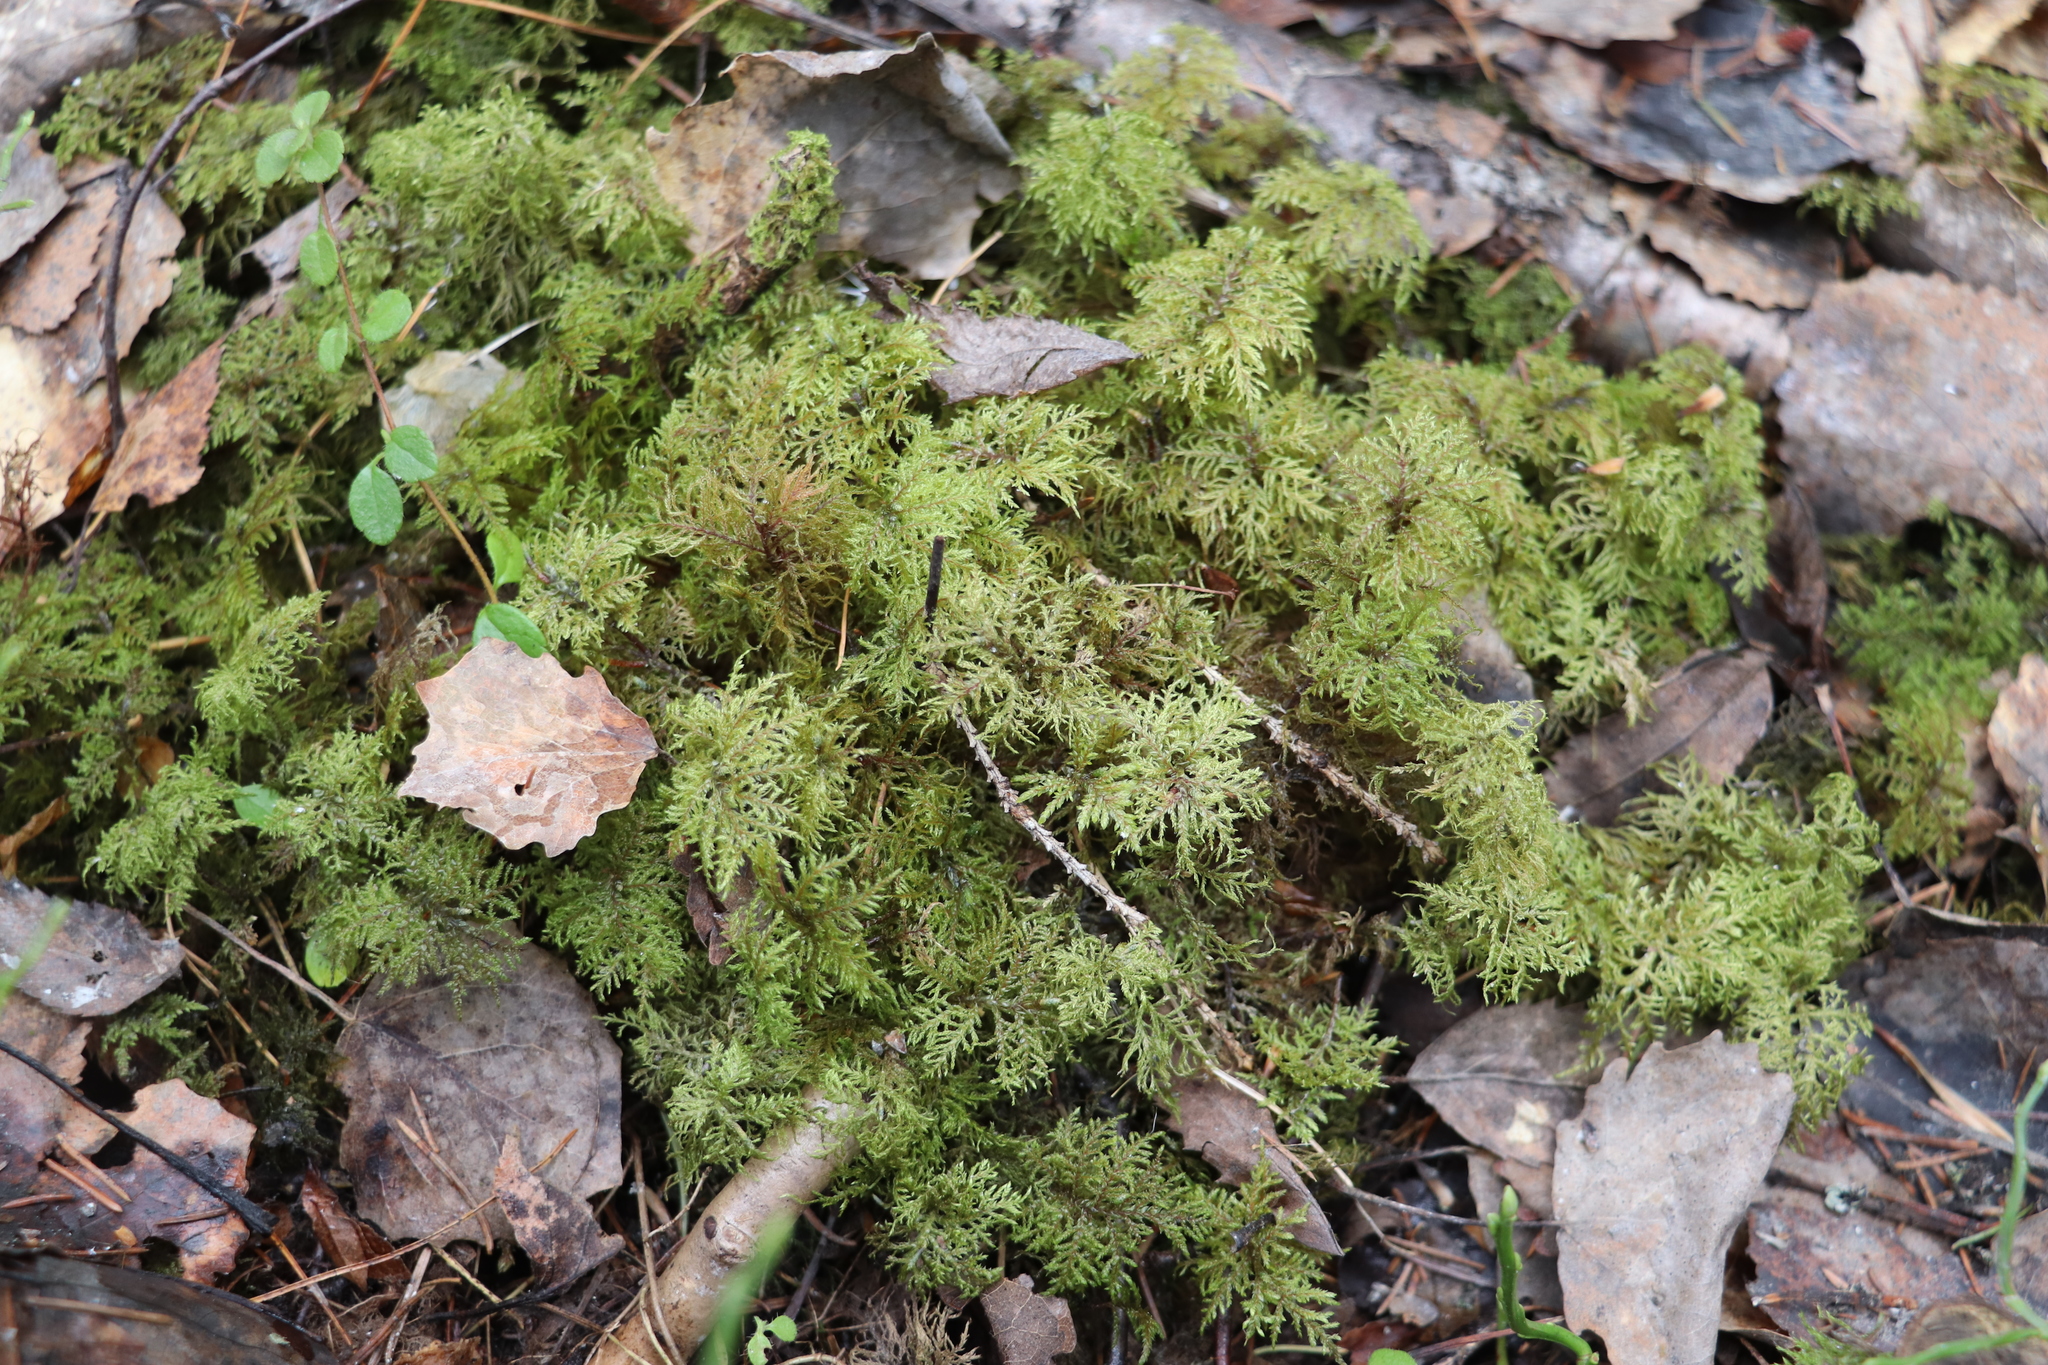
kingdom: Plantae
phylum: Bryophyta
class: Bryopsida
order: Hypnales
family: Hylocomiaceae
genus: Hylocomium
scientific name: Hylocomium splendens
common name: Stairstep moss
